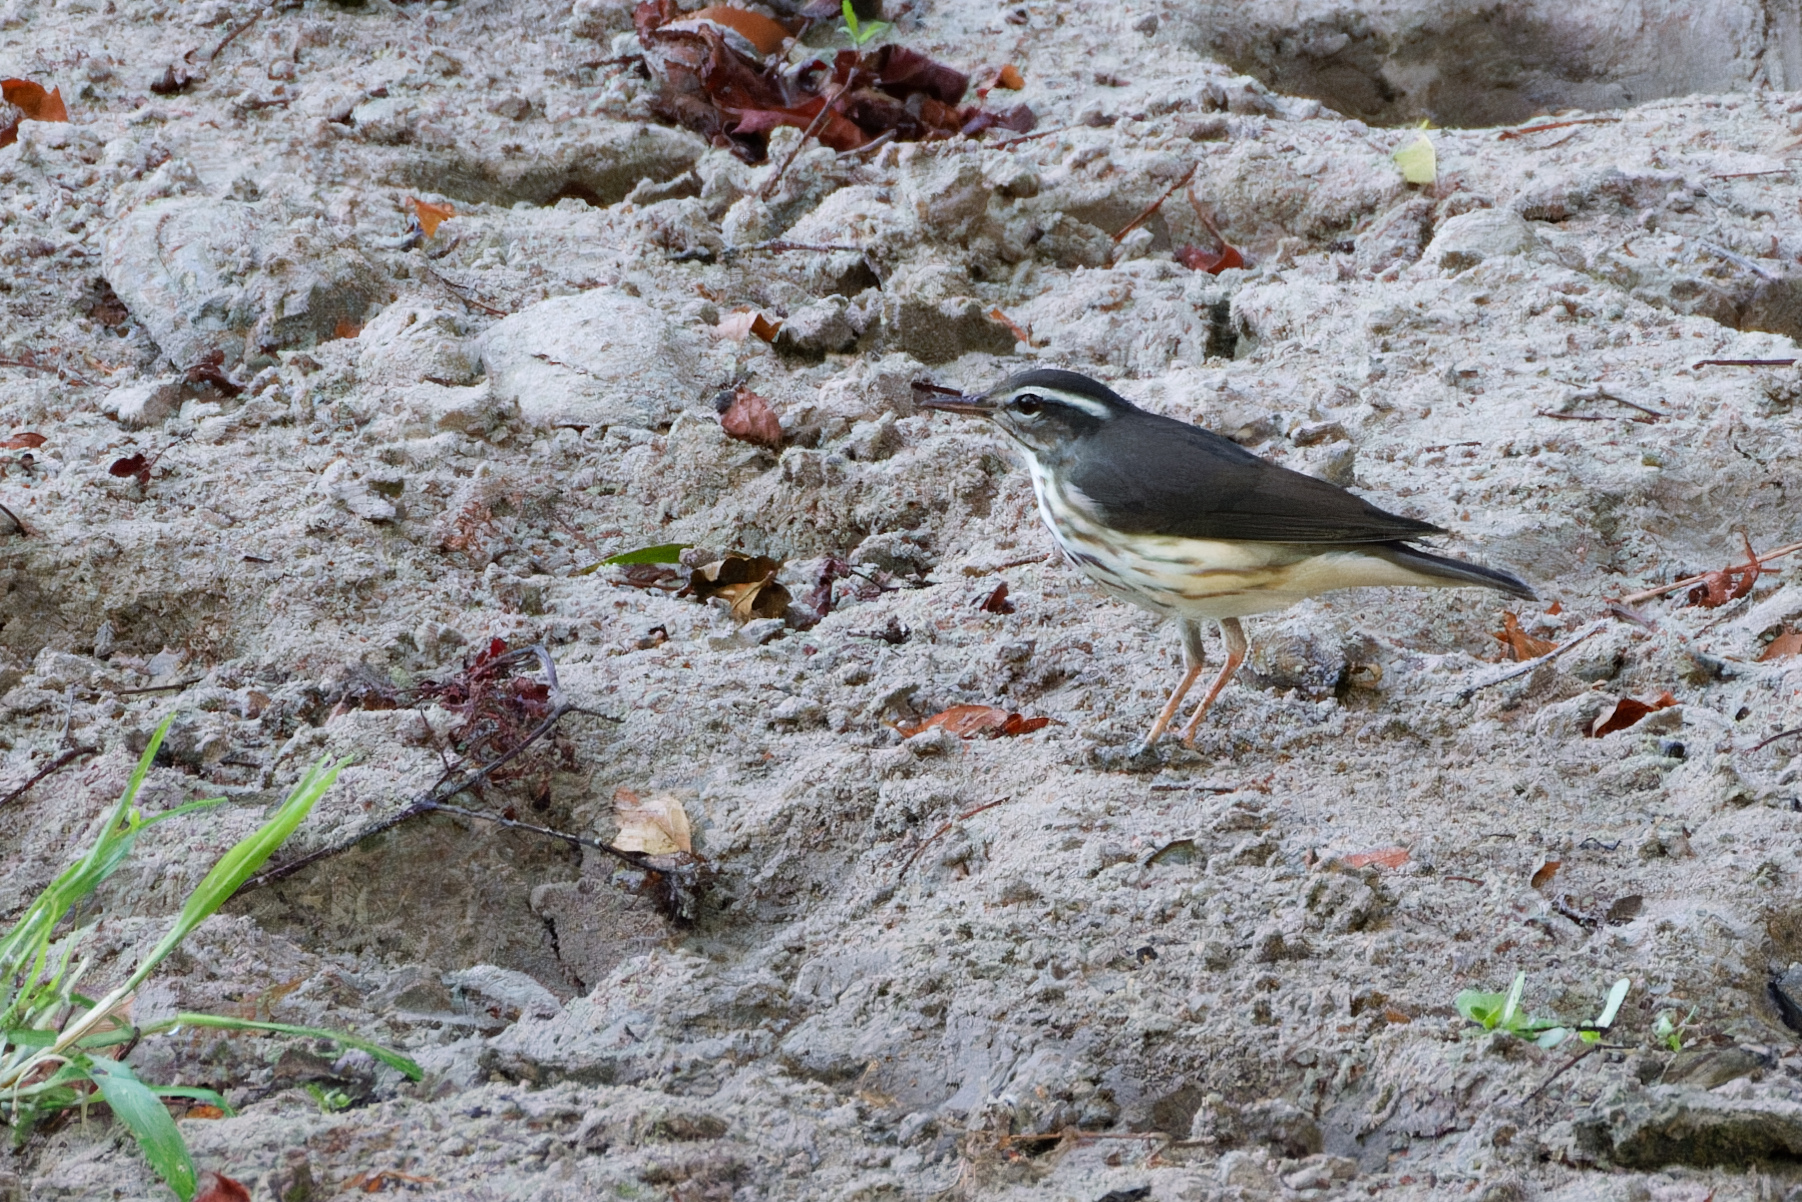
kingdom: Animalia
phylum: Chordata
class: Aves
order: Passeriformes
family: Parulidae
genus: Parkesia
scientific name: Parkesia motacilla
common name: Louisiana waterthrush
